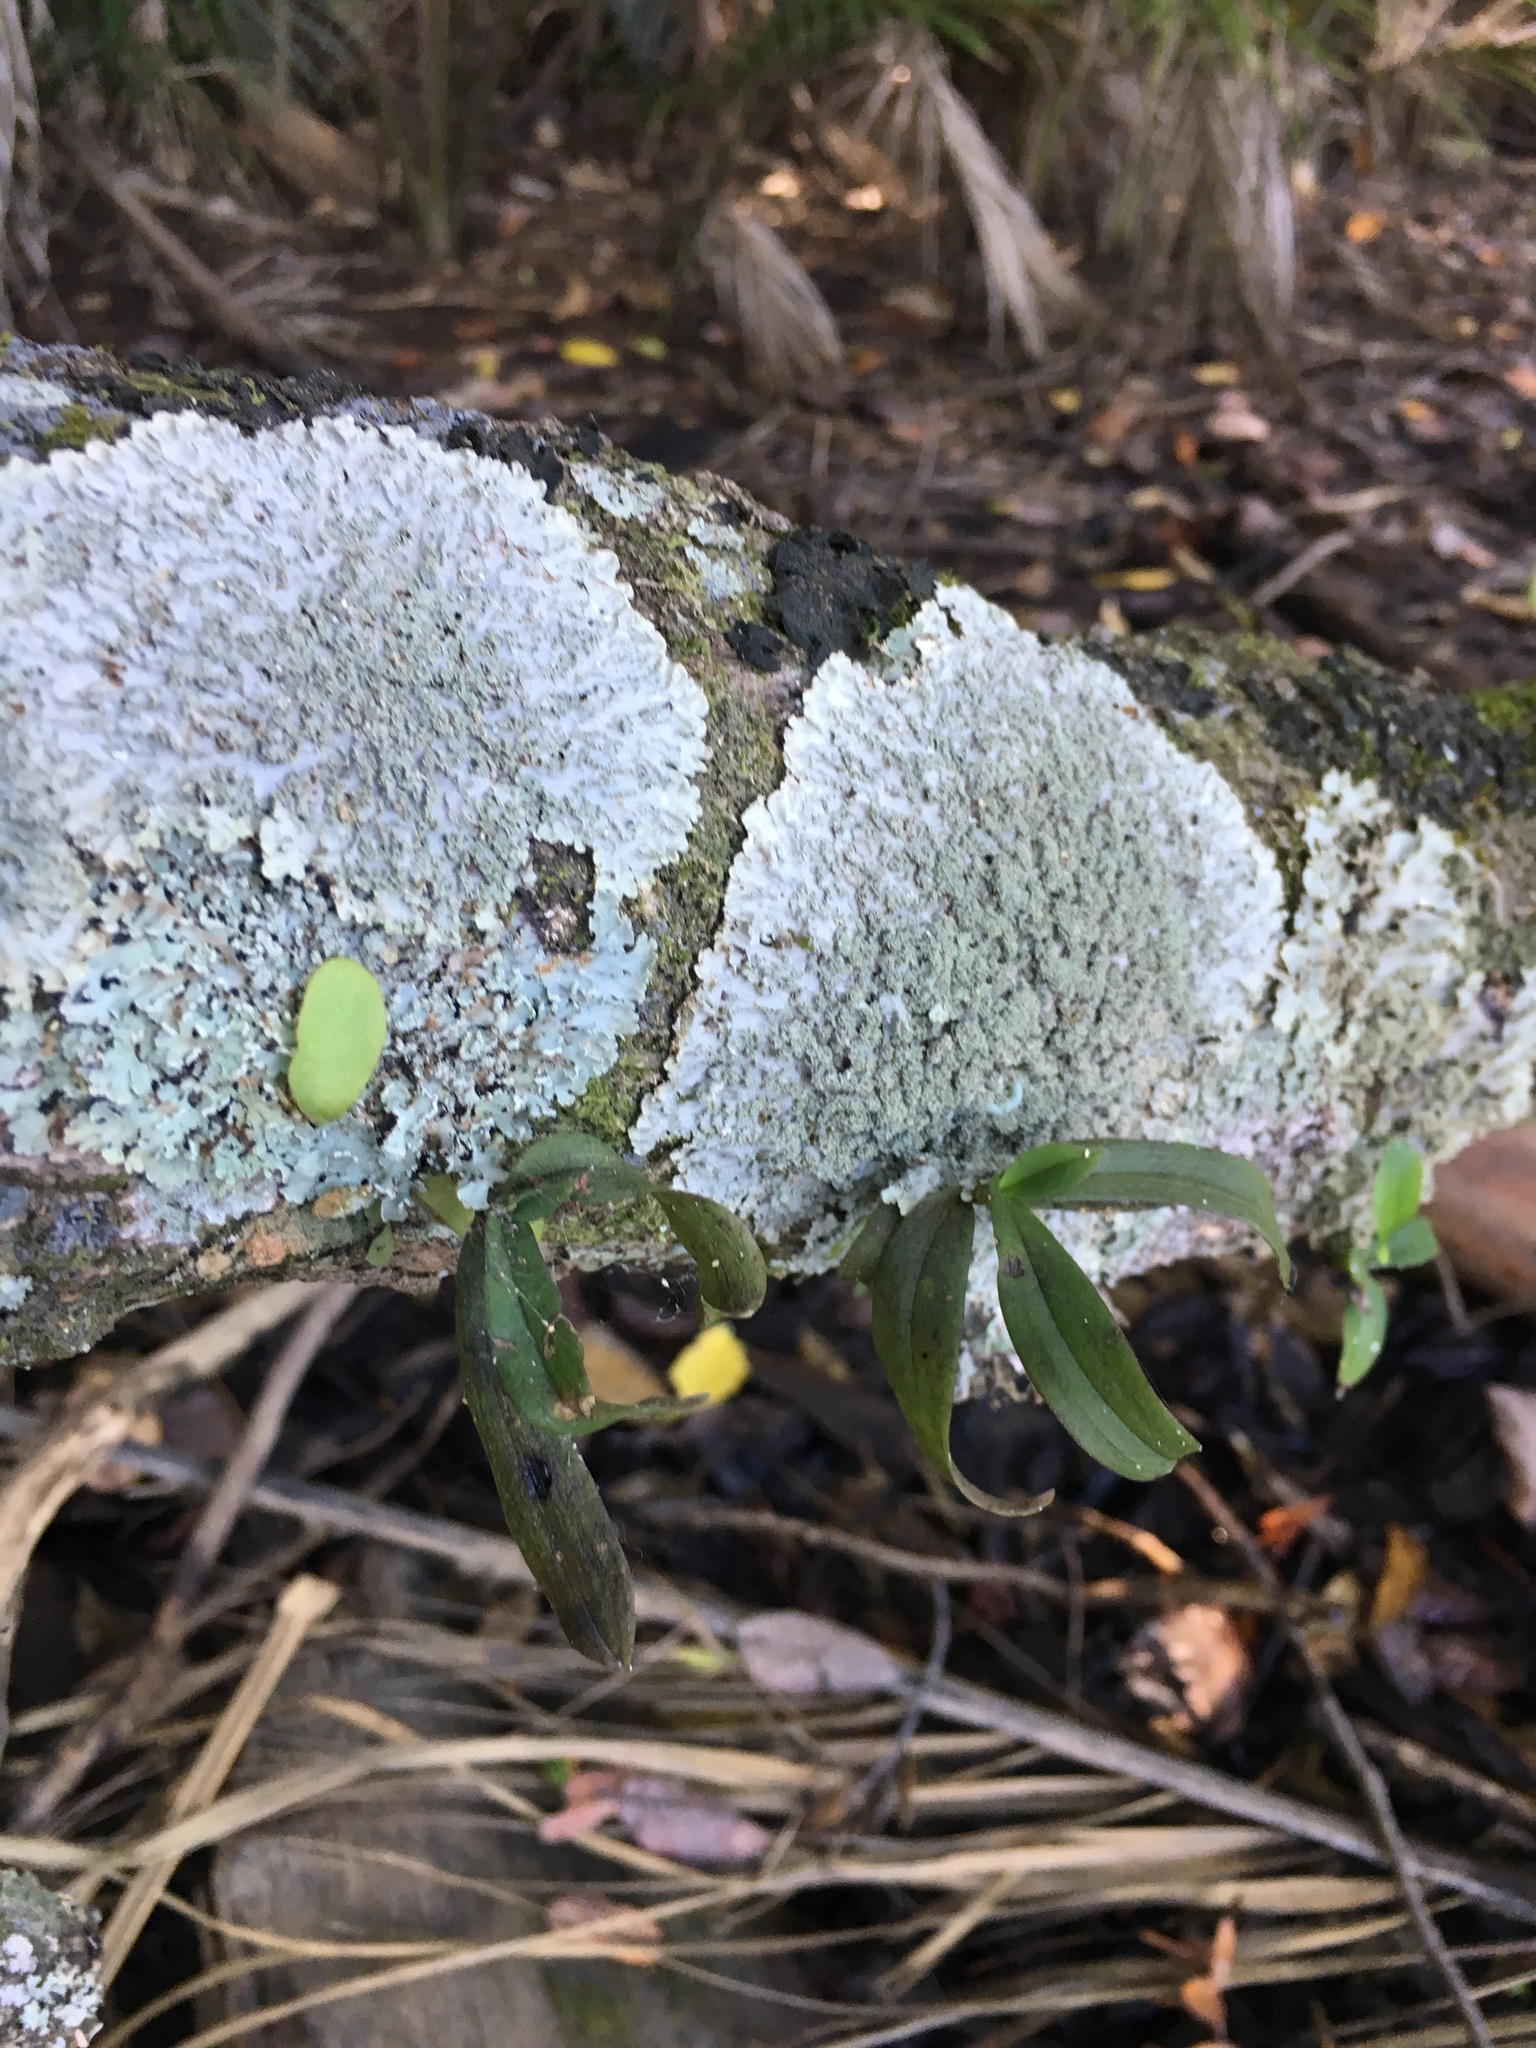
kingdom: Plantae
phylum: Tracheophyta
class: Liliopsida
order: Asparagales
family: Orchidaceae
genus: Drymoanthus
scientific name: Drymoanthus adversus
